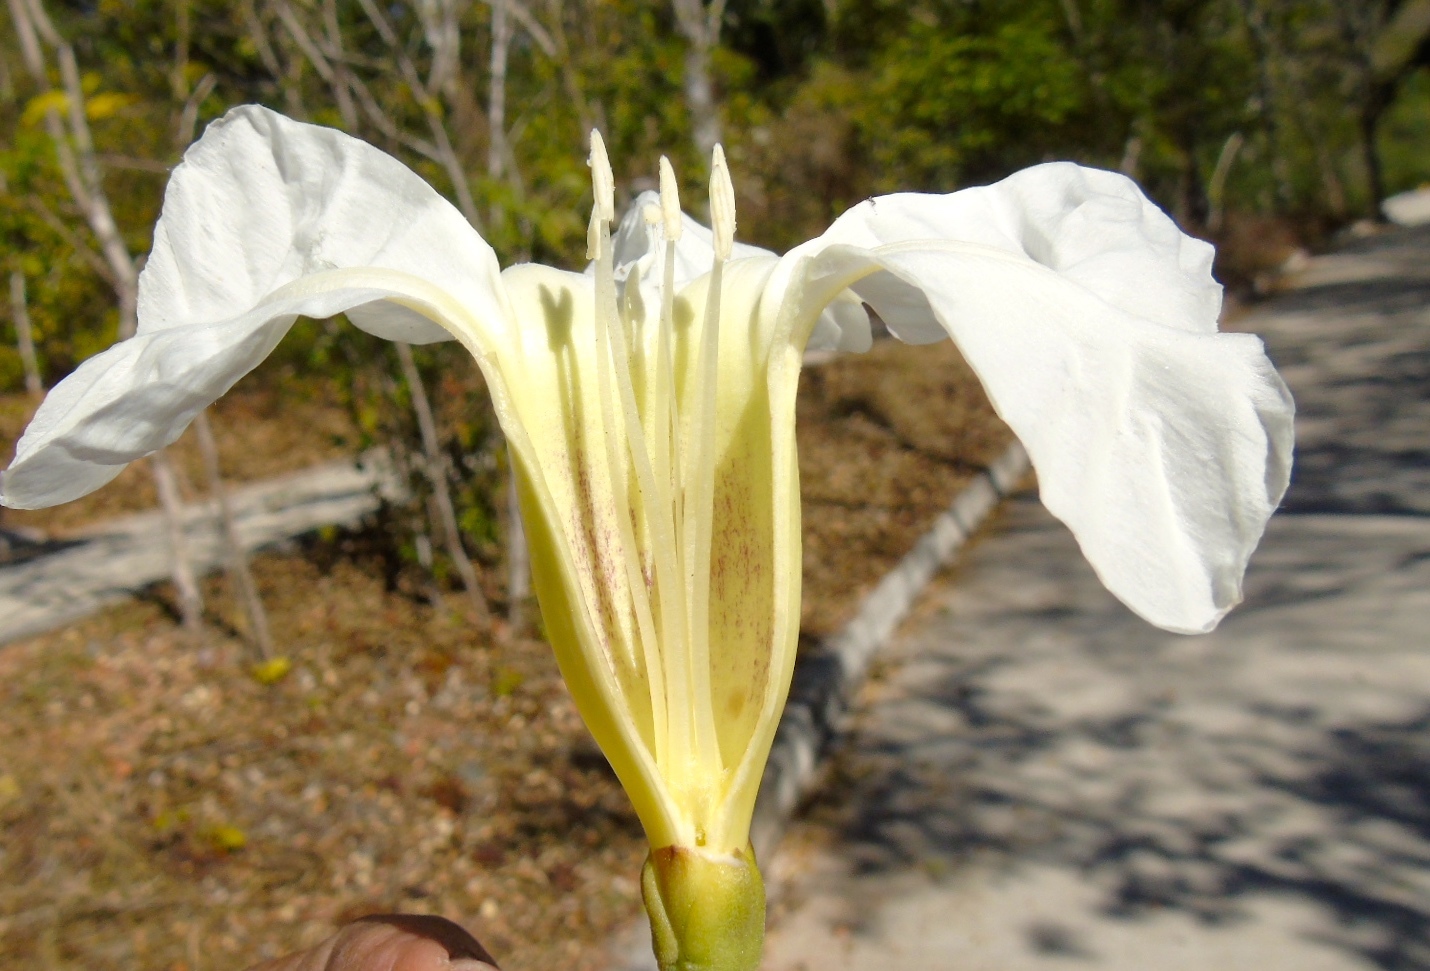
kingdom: Plantae
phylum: Tracheophyta
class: Magnoliopsida
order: Solanales
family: Convolvulaceae
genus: Ipomoea
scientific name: Ipomoea
